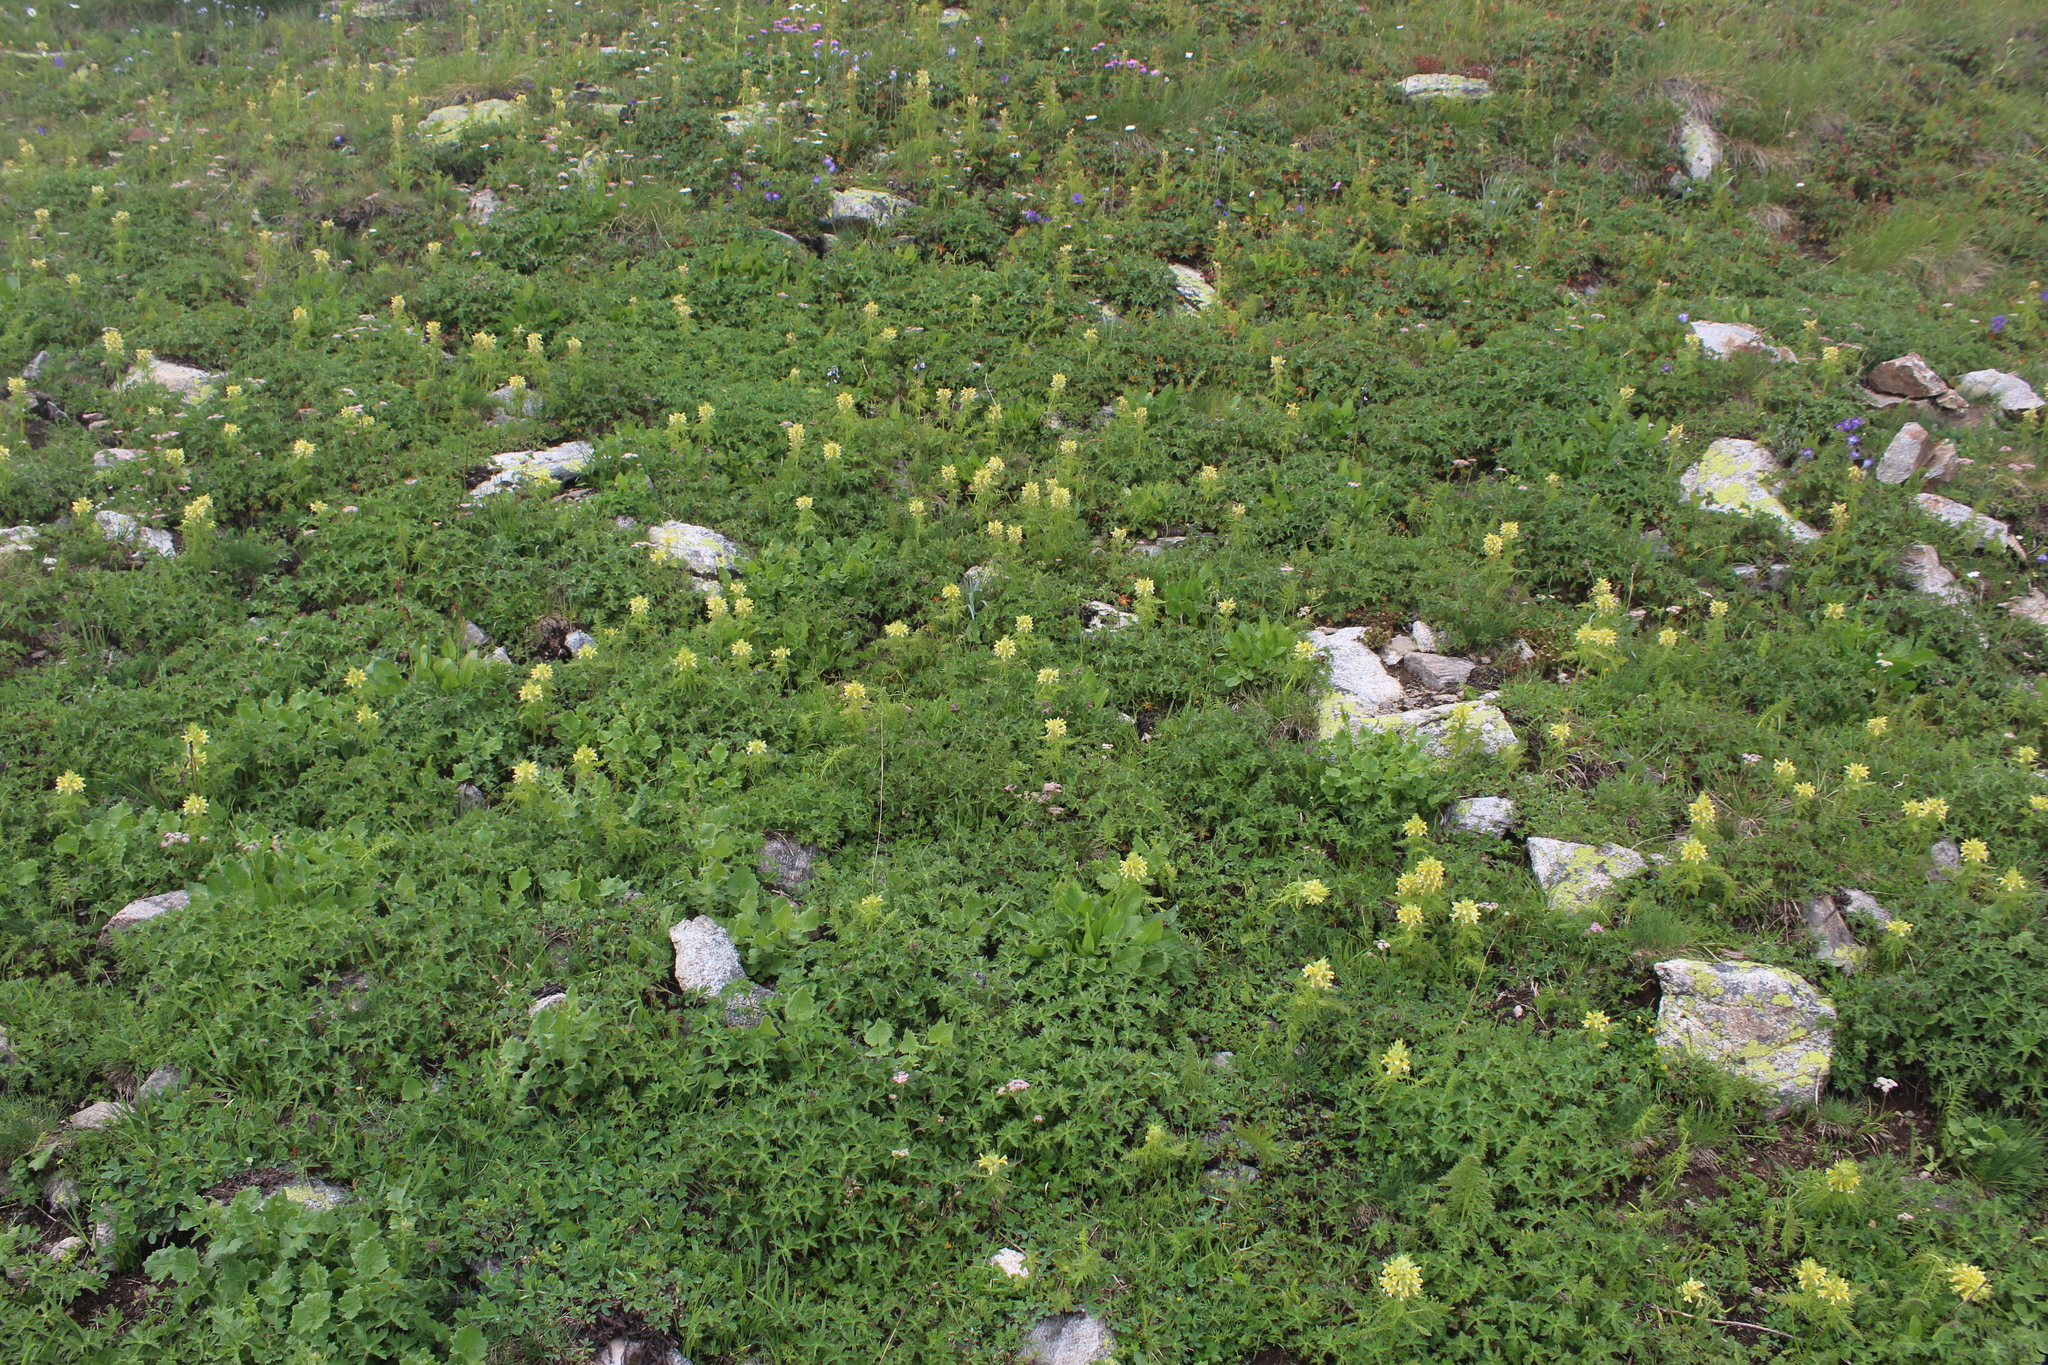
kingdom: Plantae
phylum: Tracheophyta
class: Magnoliopsida
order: Lamiales
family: Orobanchaceae
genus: Pedicularis
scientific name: Pedicularis condensata
